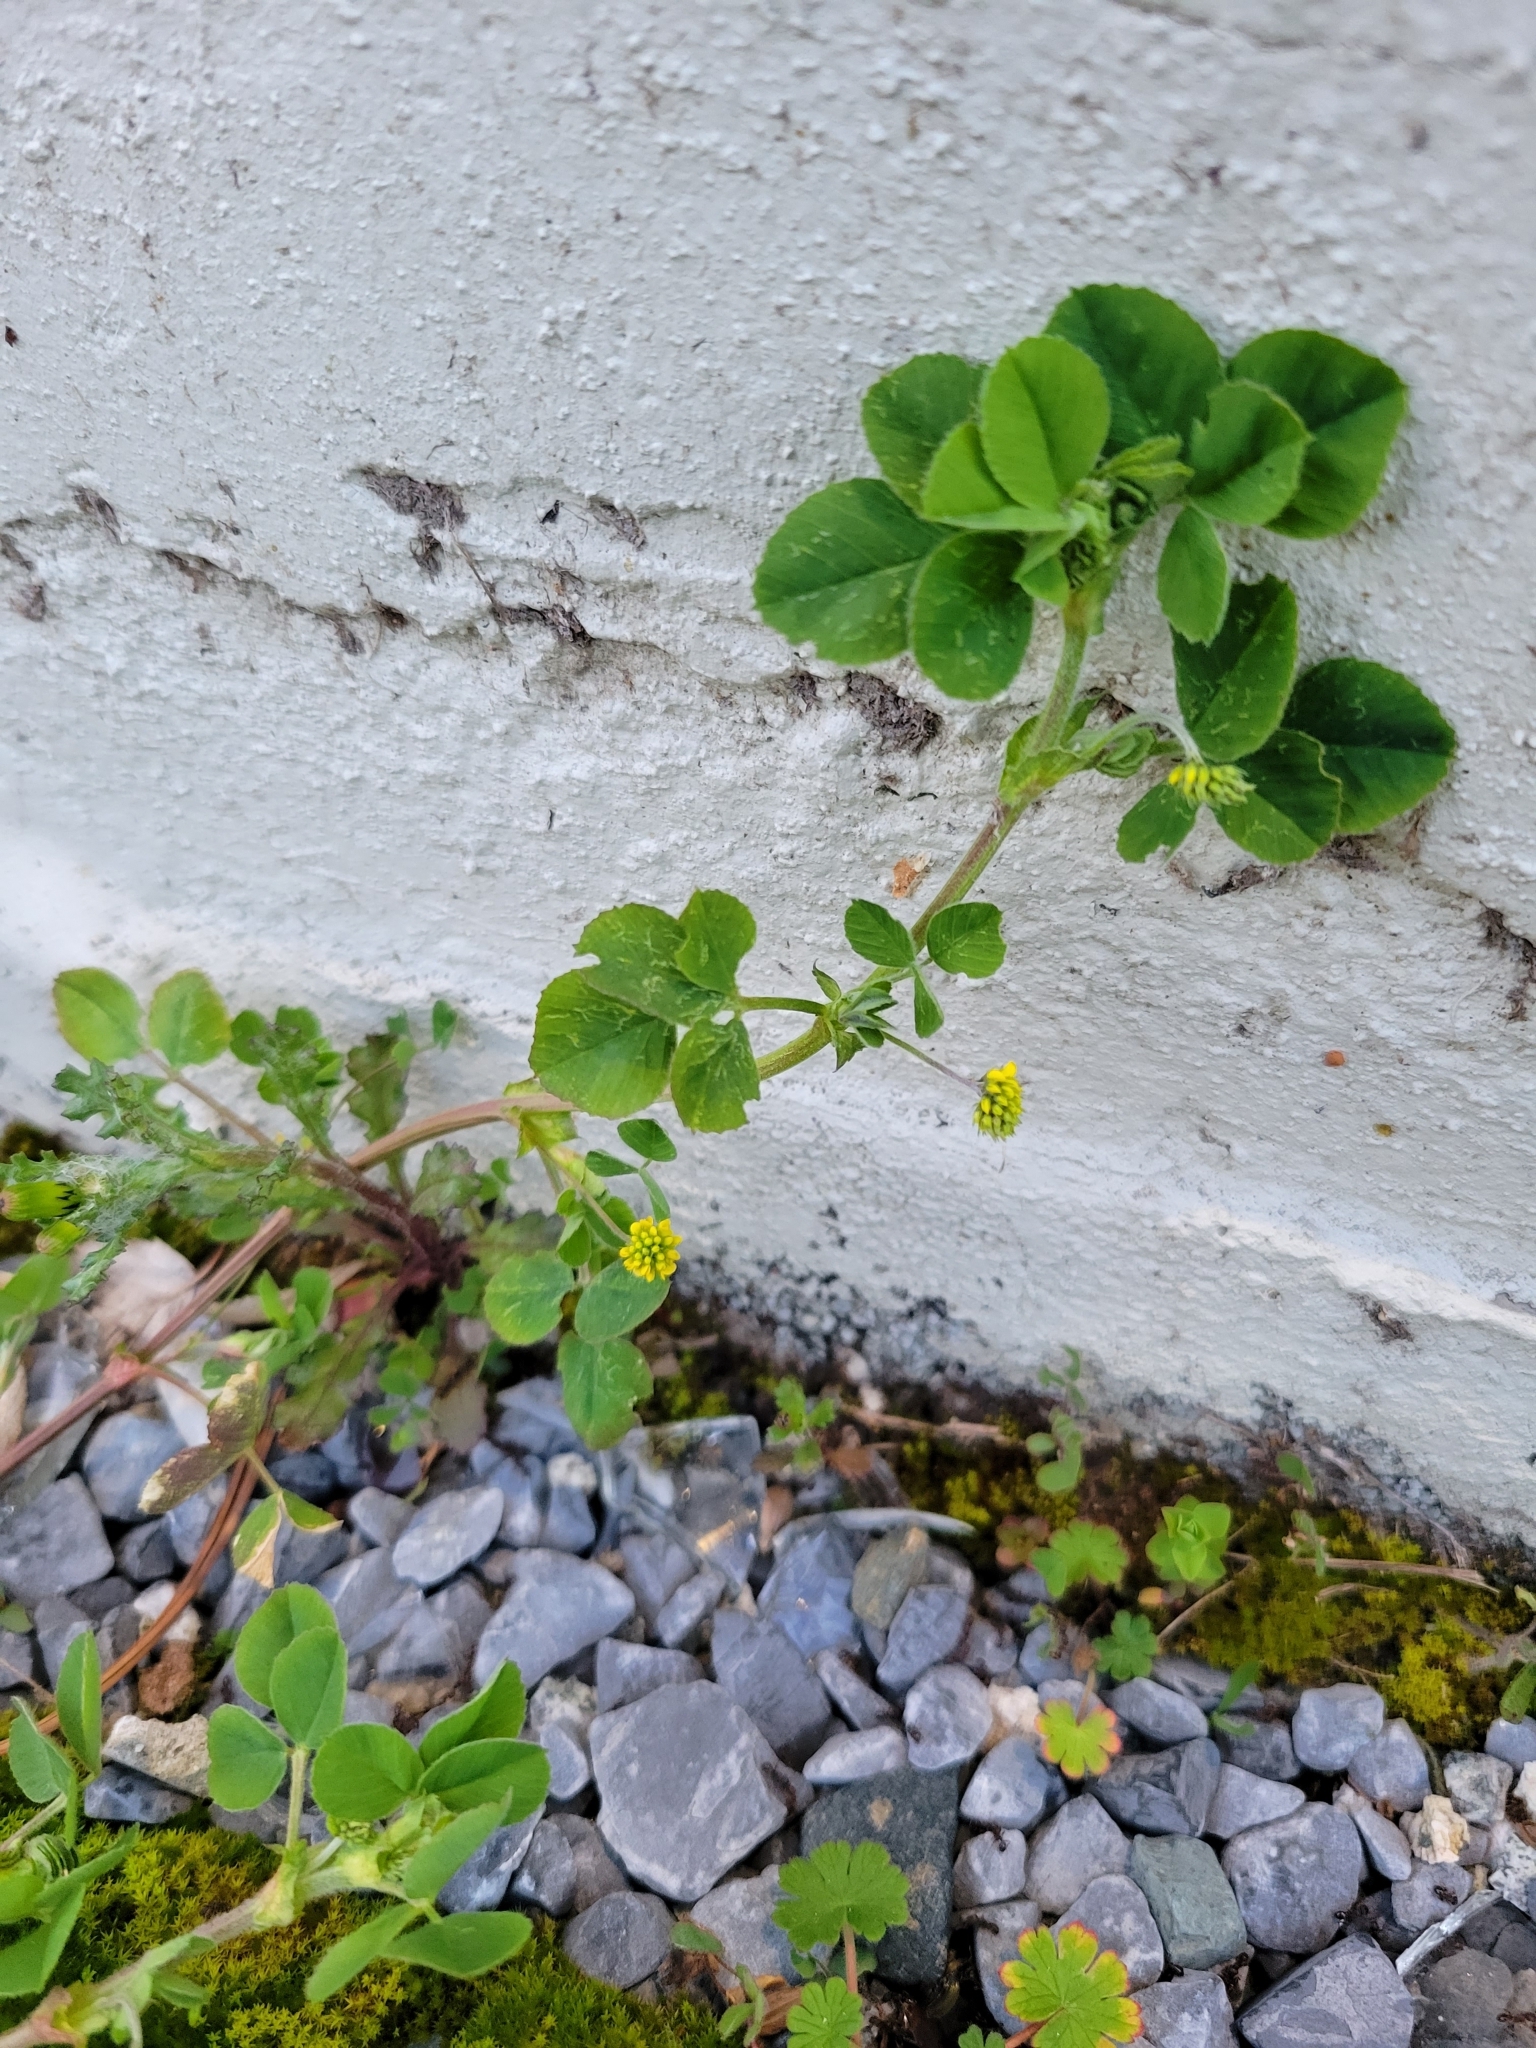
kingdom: Plantae
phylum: Tracheophyta
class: Magnoliopsida
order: Fabales
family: Fabaceae
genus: Medicago
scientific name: Medicago lupulina
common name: Black medick
